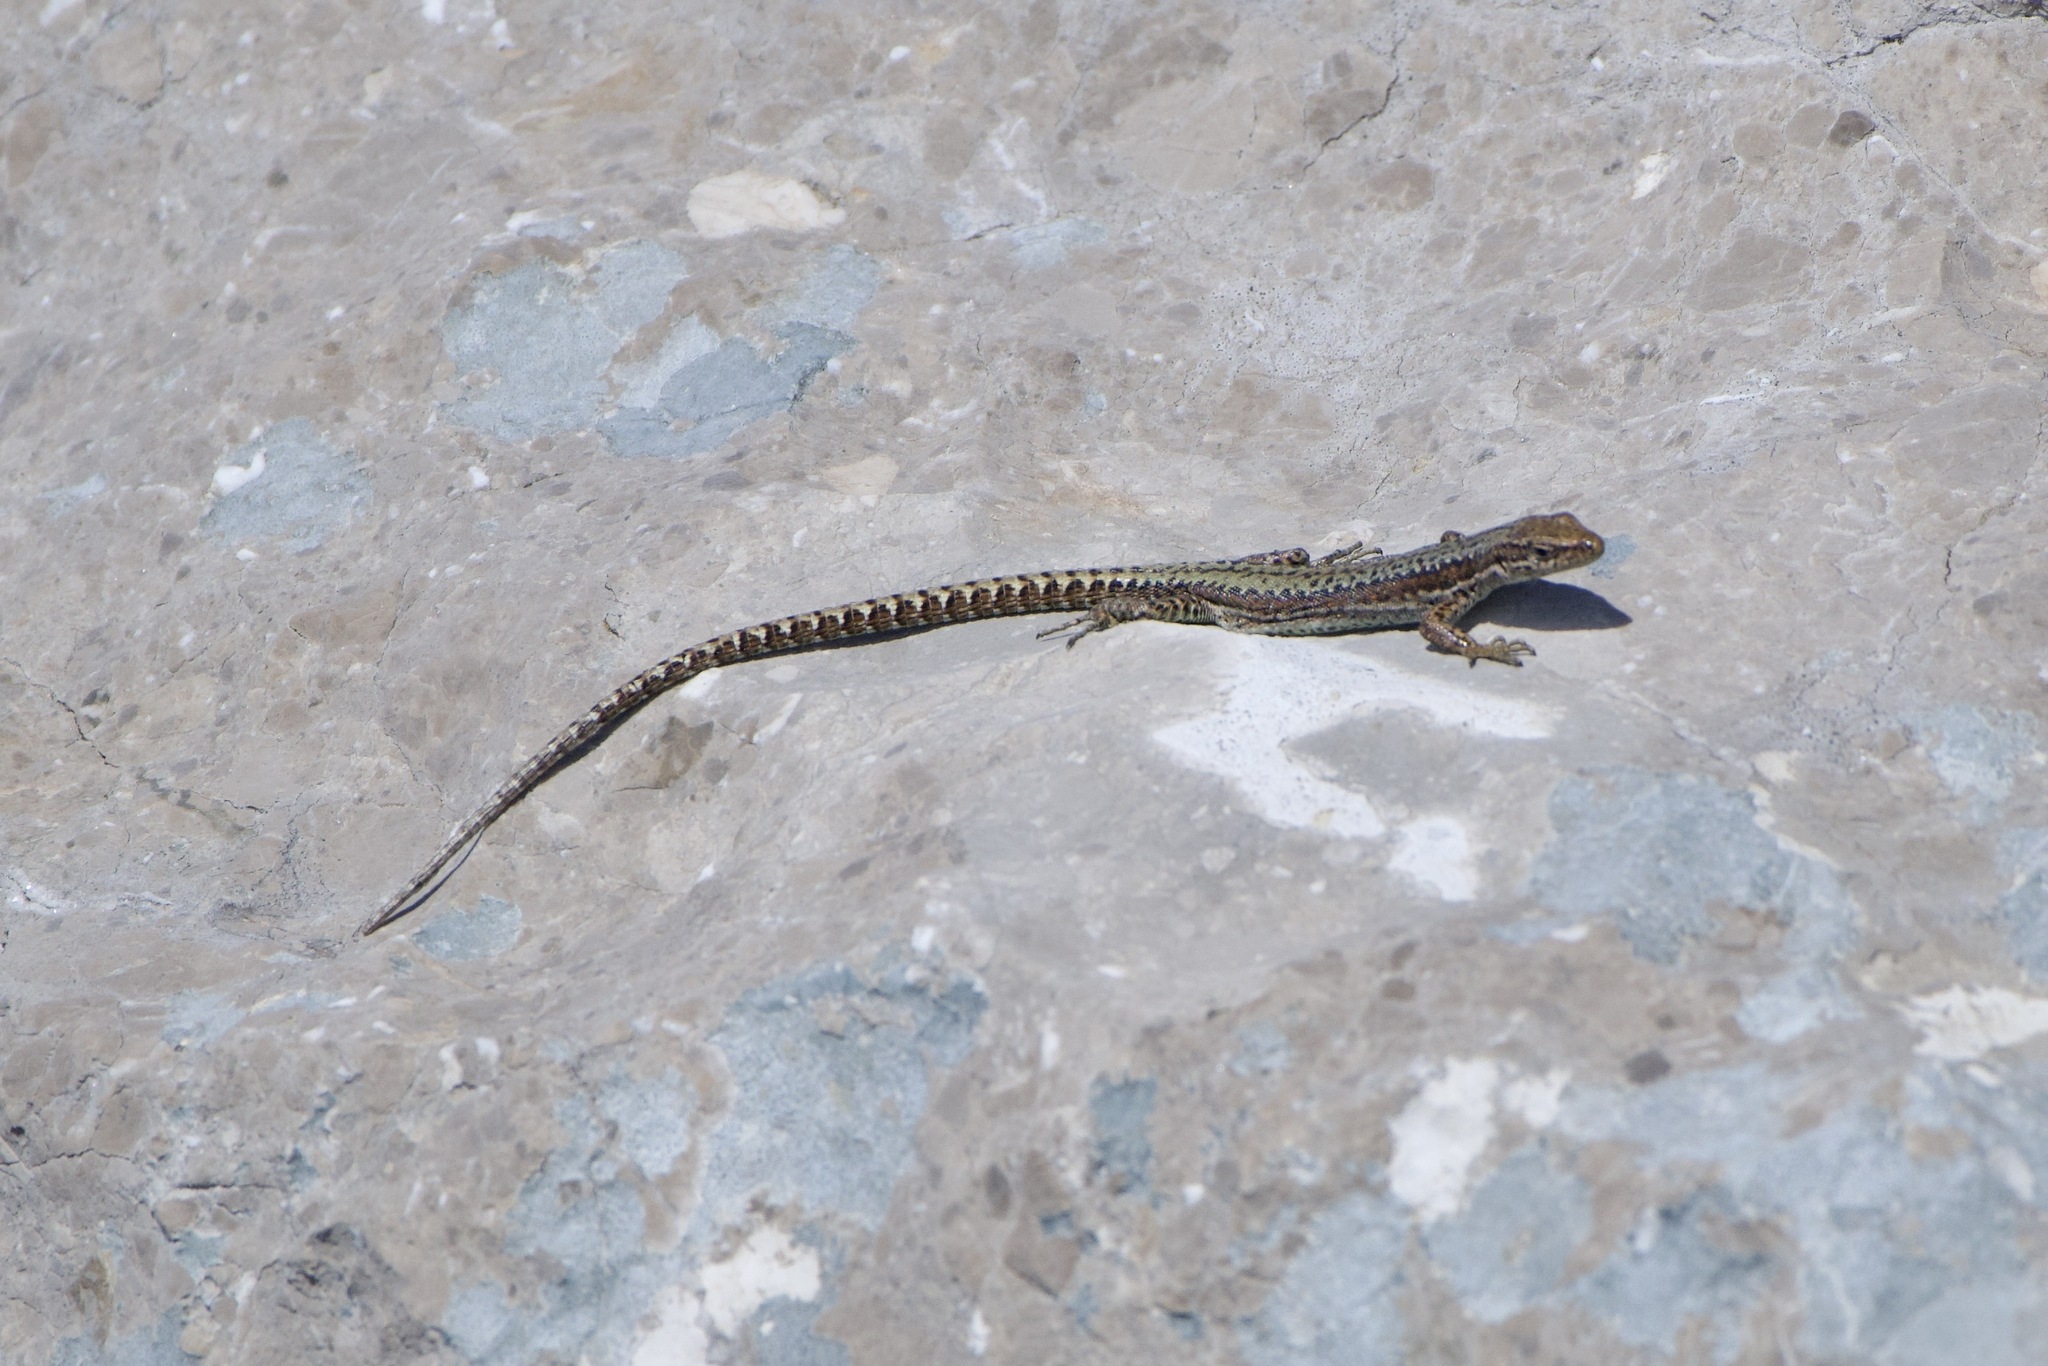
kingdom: Animalia
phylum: Chordata
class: Squamata
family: Lacertidae
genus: Podarcis
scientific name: Podarcis muralis
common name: Common wall lizard
